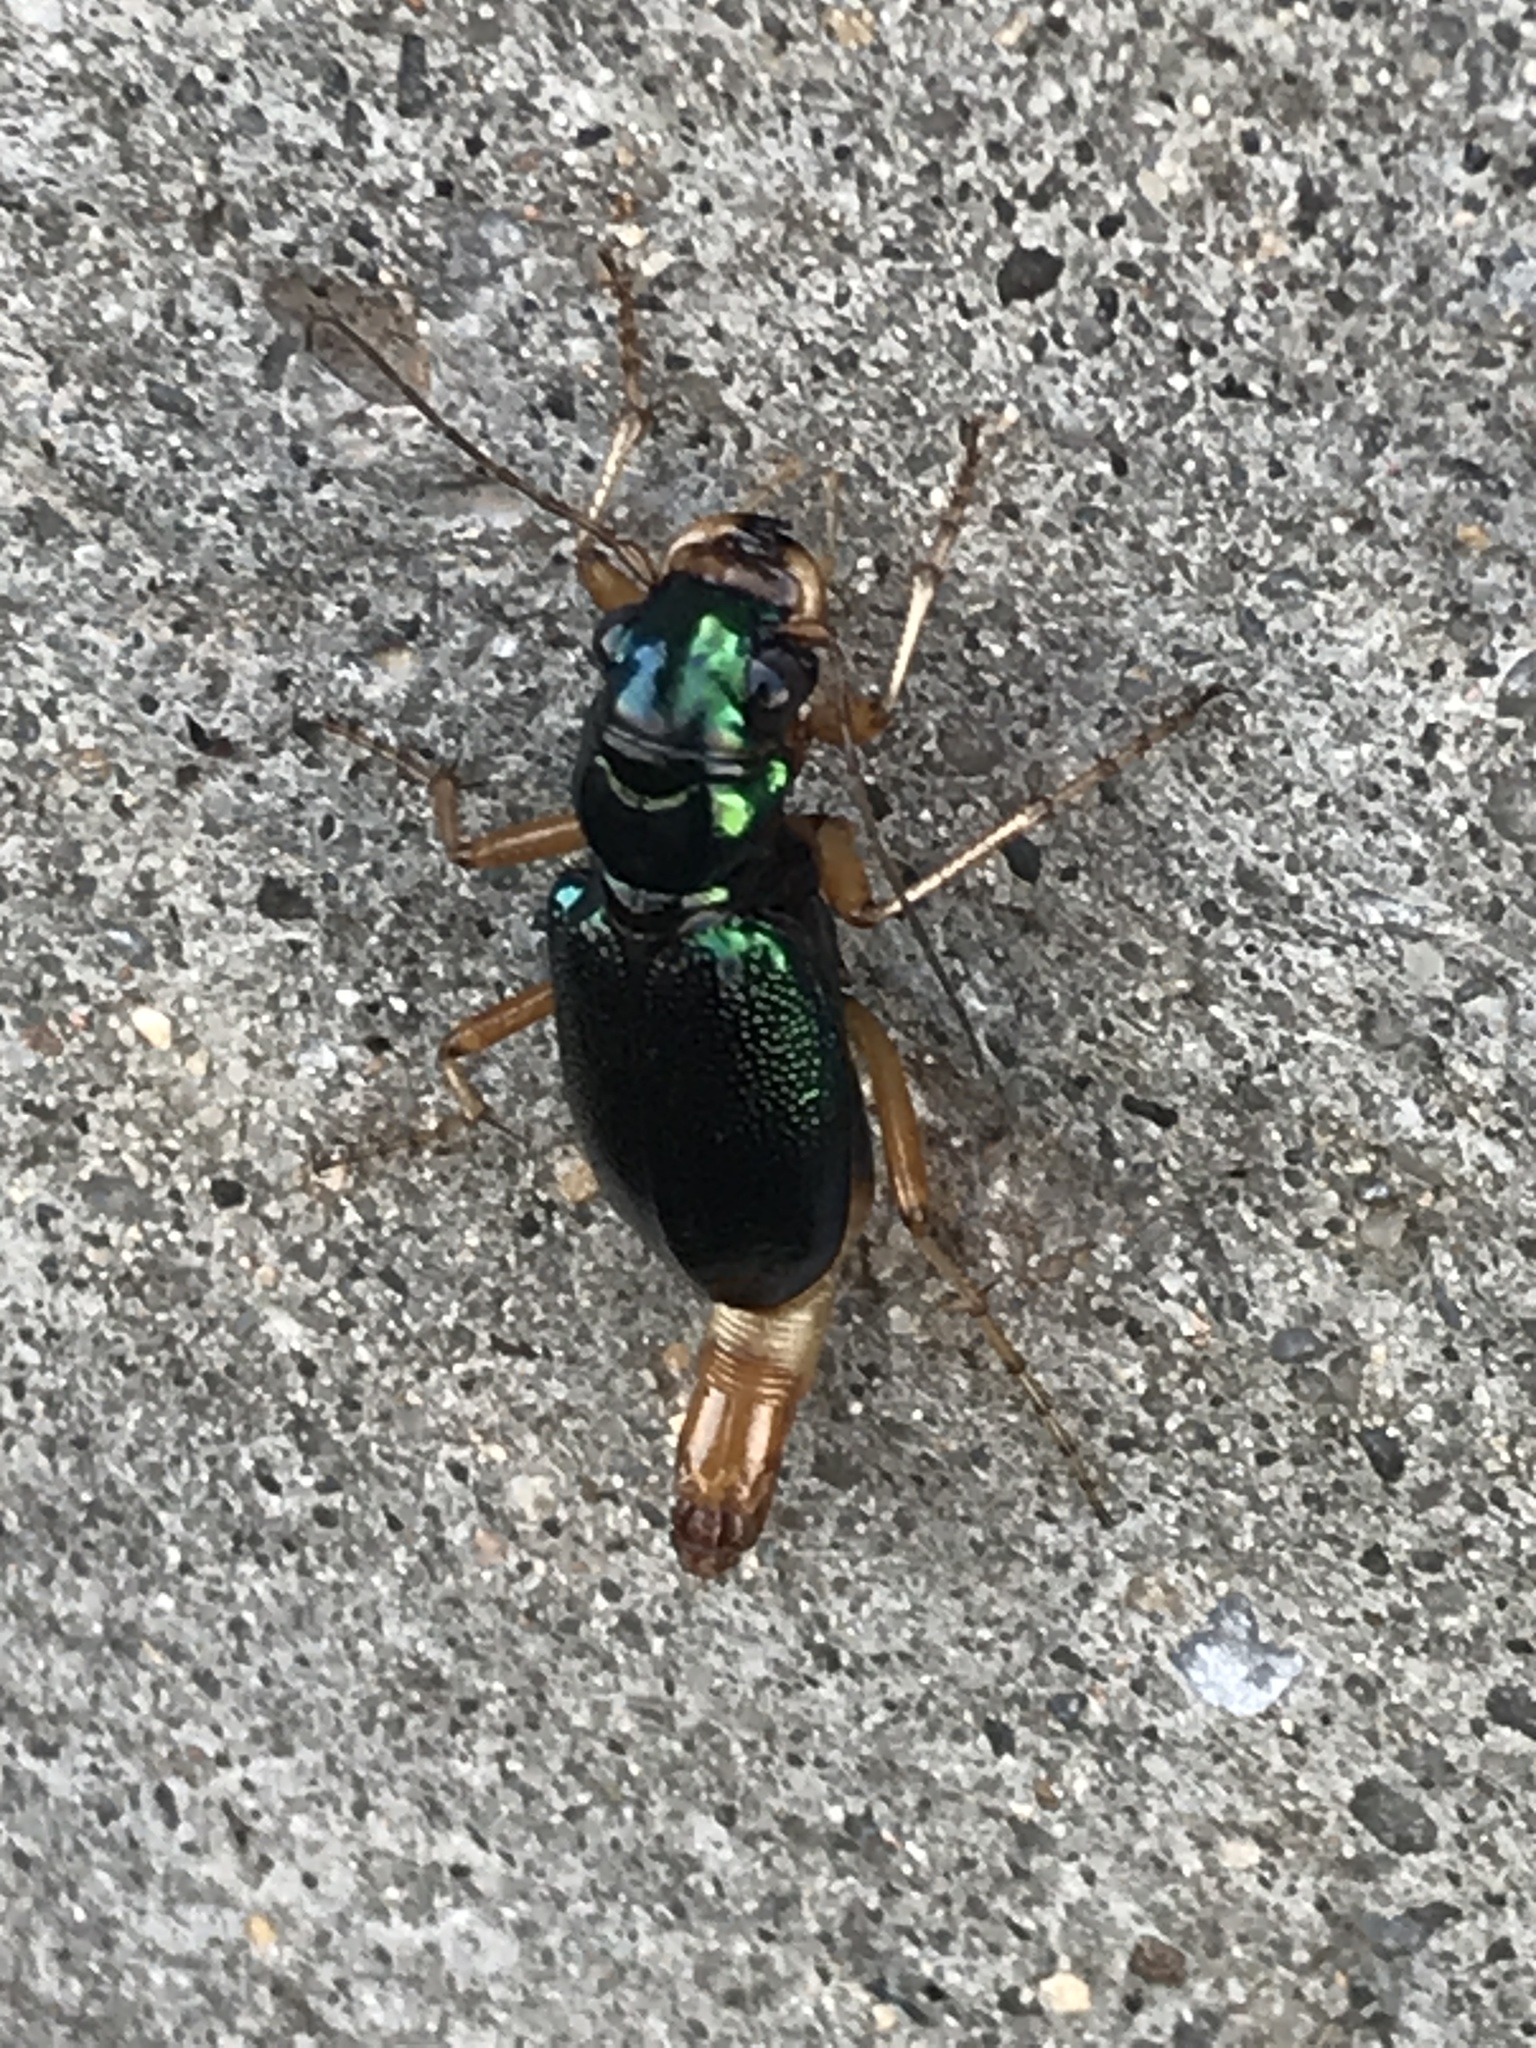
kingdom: Animalia
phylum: Arthropoda
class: Insecta
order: Coleoptera
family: Carabidae
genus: Tetracha
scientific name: Tetracha virginica
